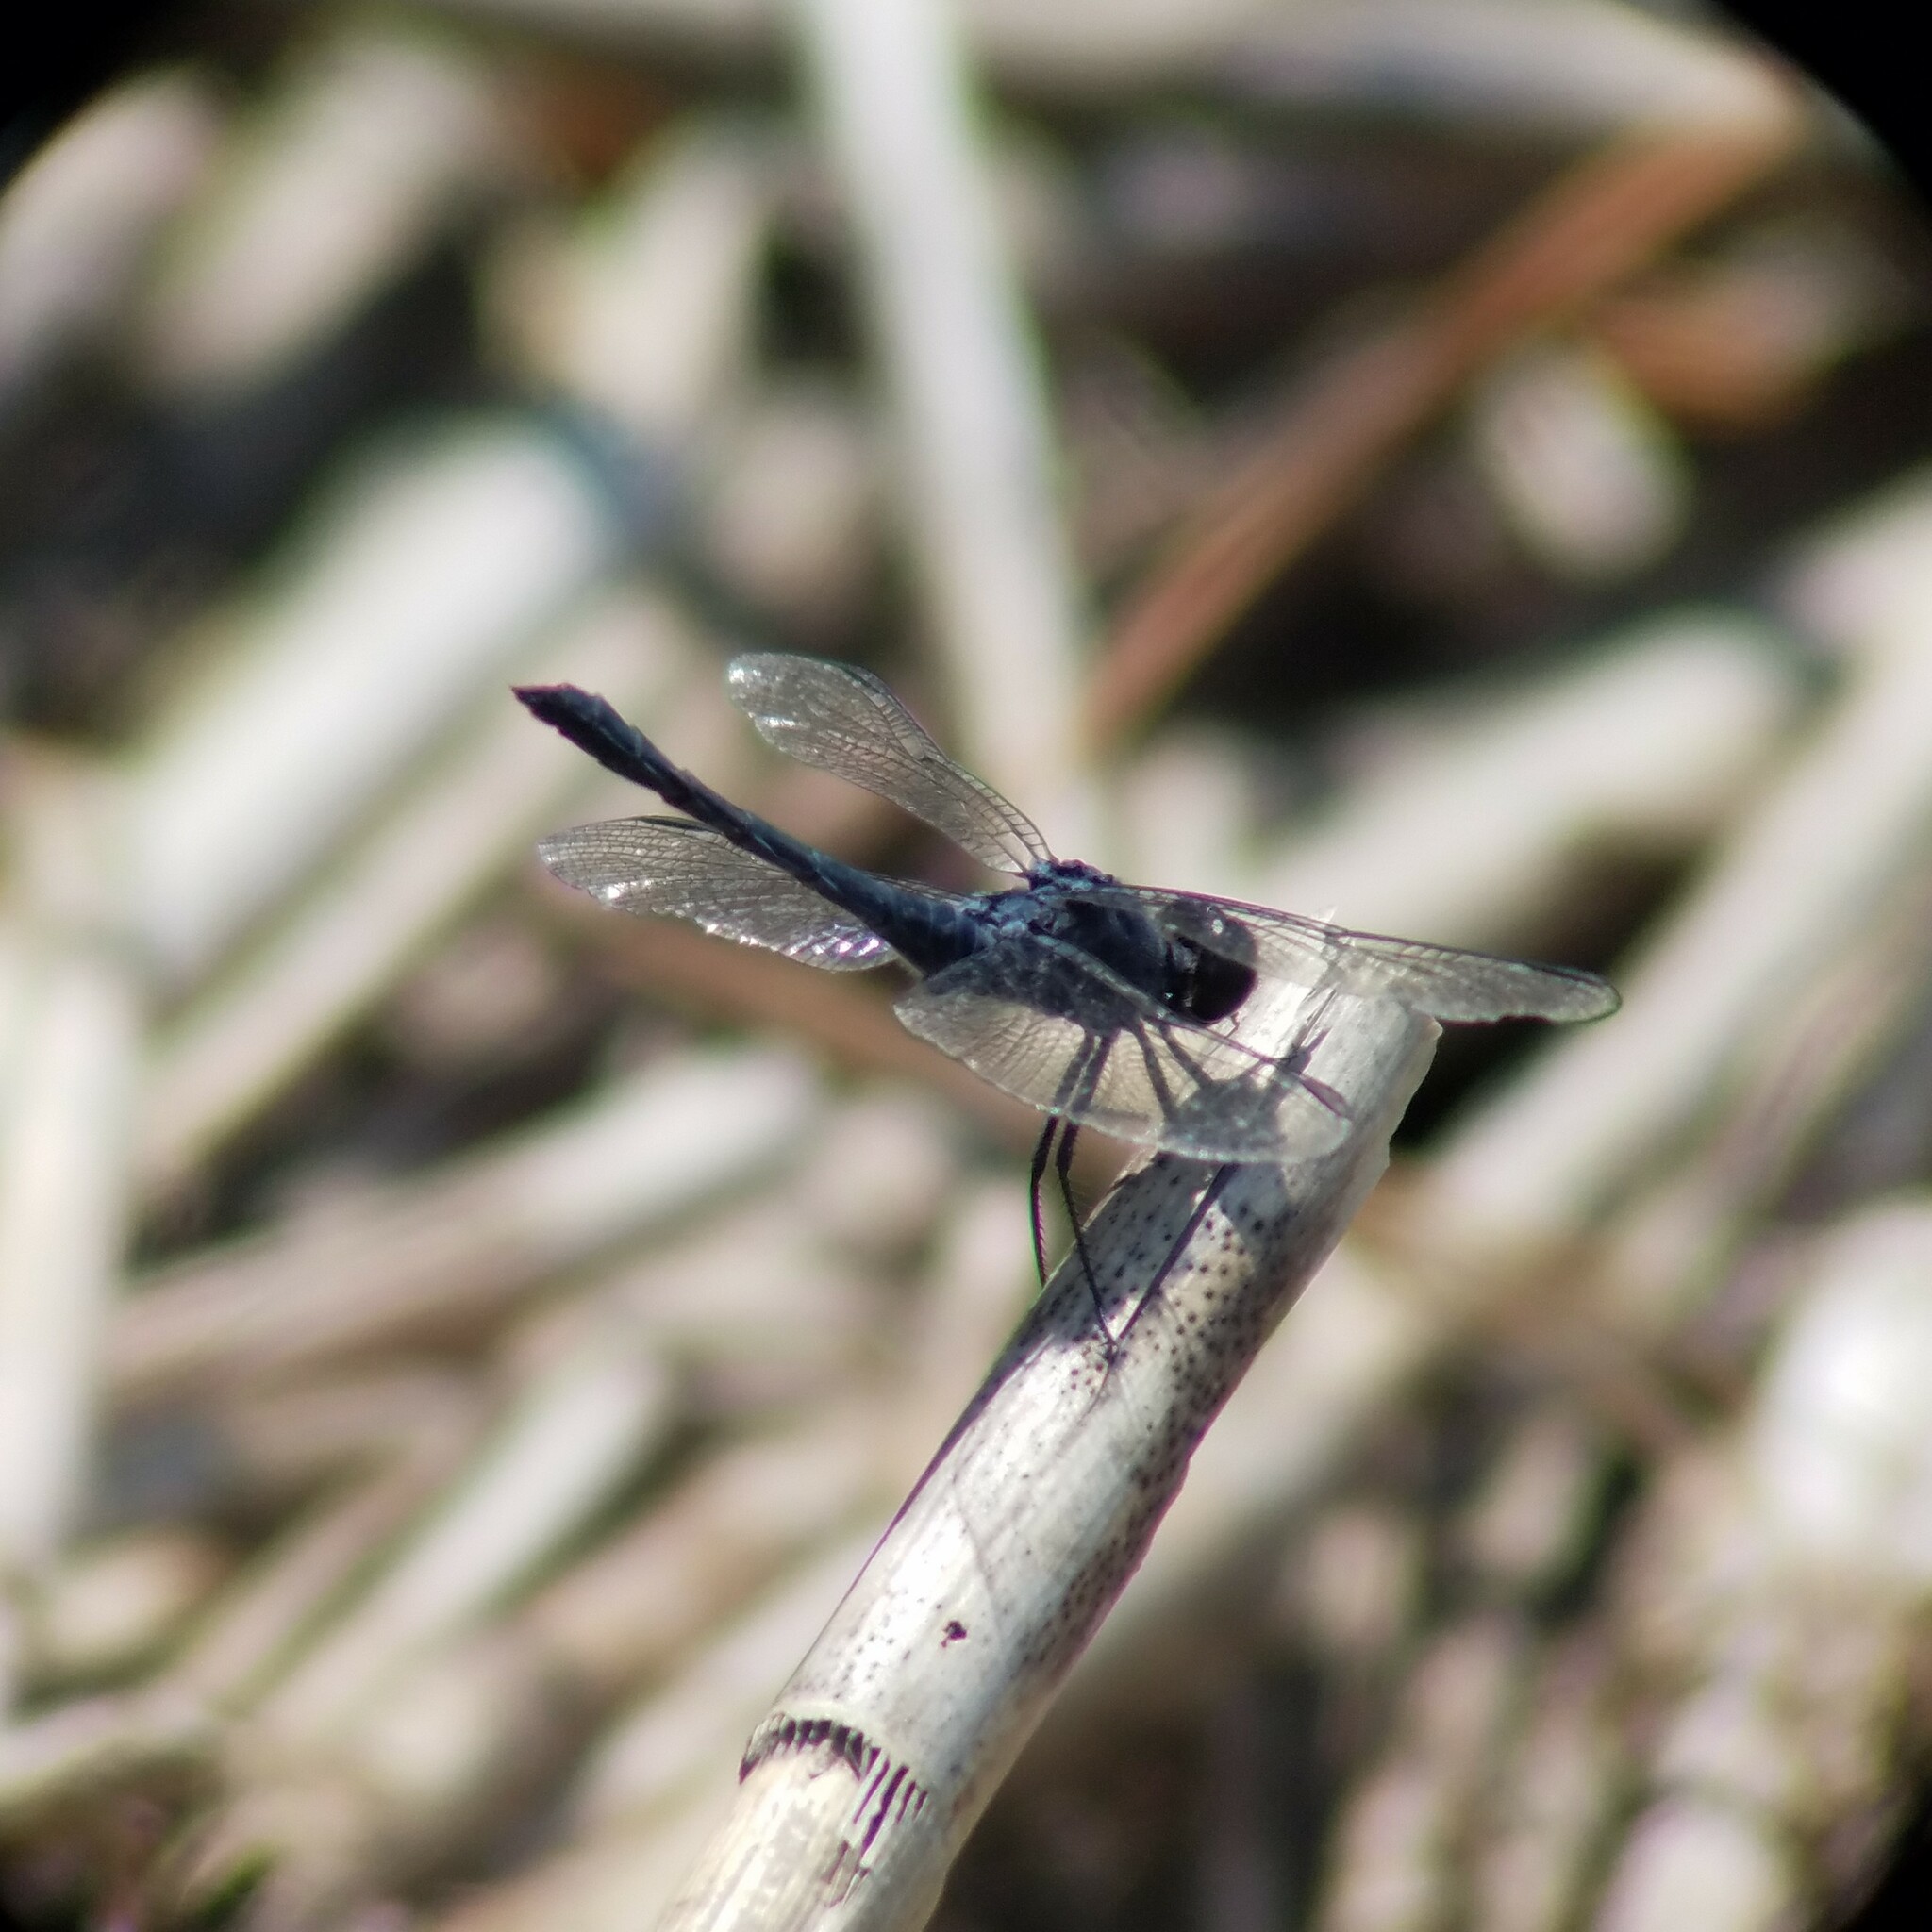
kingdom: Animalia
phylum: Arthropoda
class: Insecta
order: Odonata
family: Libellulidae
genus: Erythrodiplax
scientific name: Erythrodiplax berenice
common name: Seaside dragonlet
